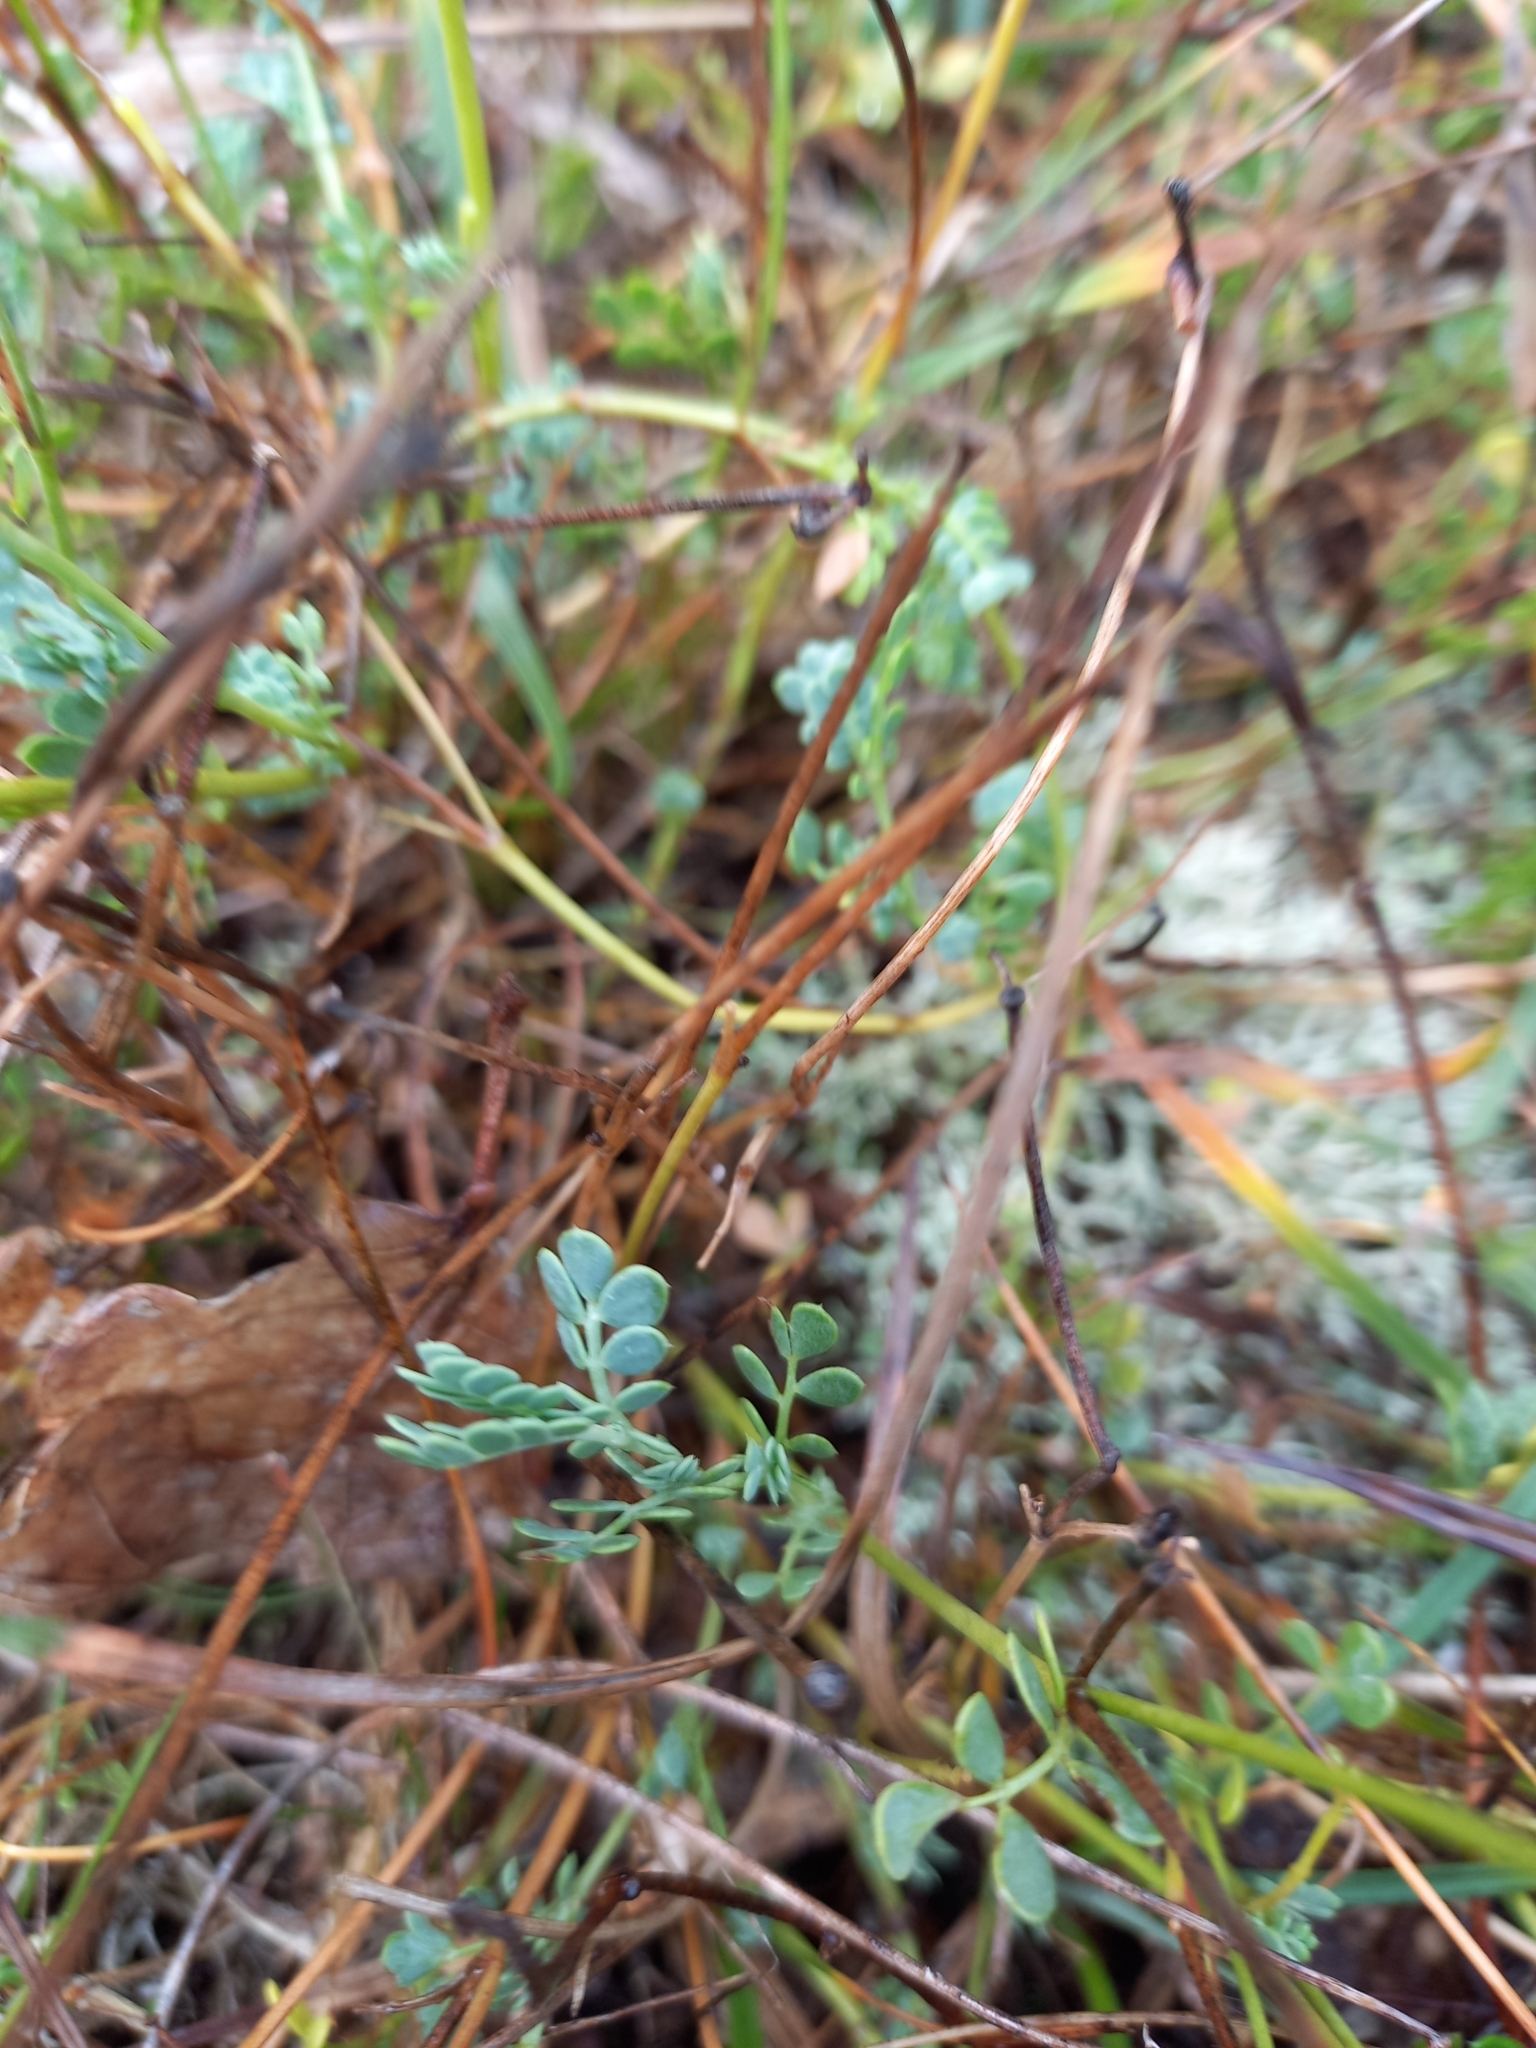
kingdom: Plantae
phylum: Tracheophyta
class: Magnoliopsida
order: Fabales
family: Fabaceae
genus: Coronilla
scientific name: Coronilla minima
